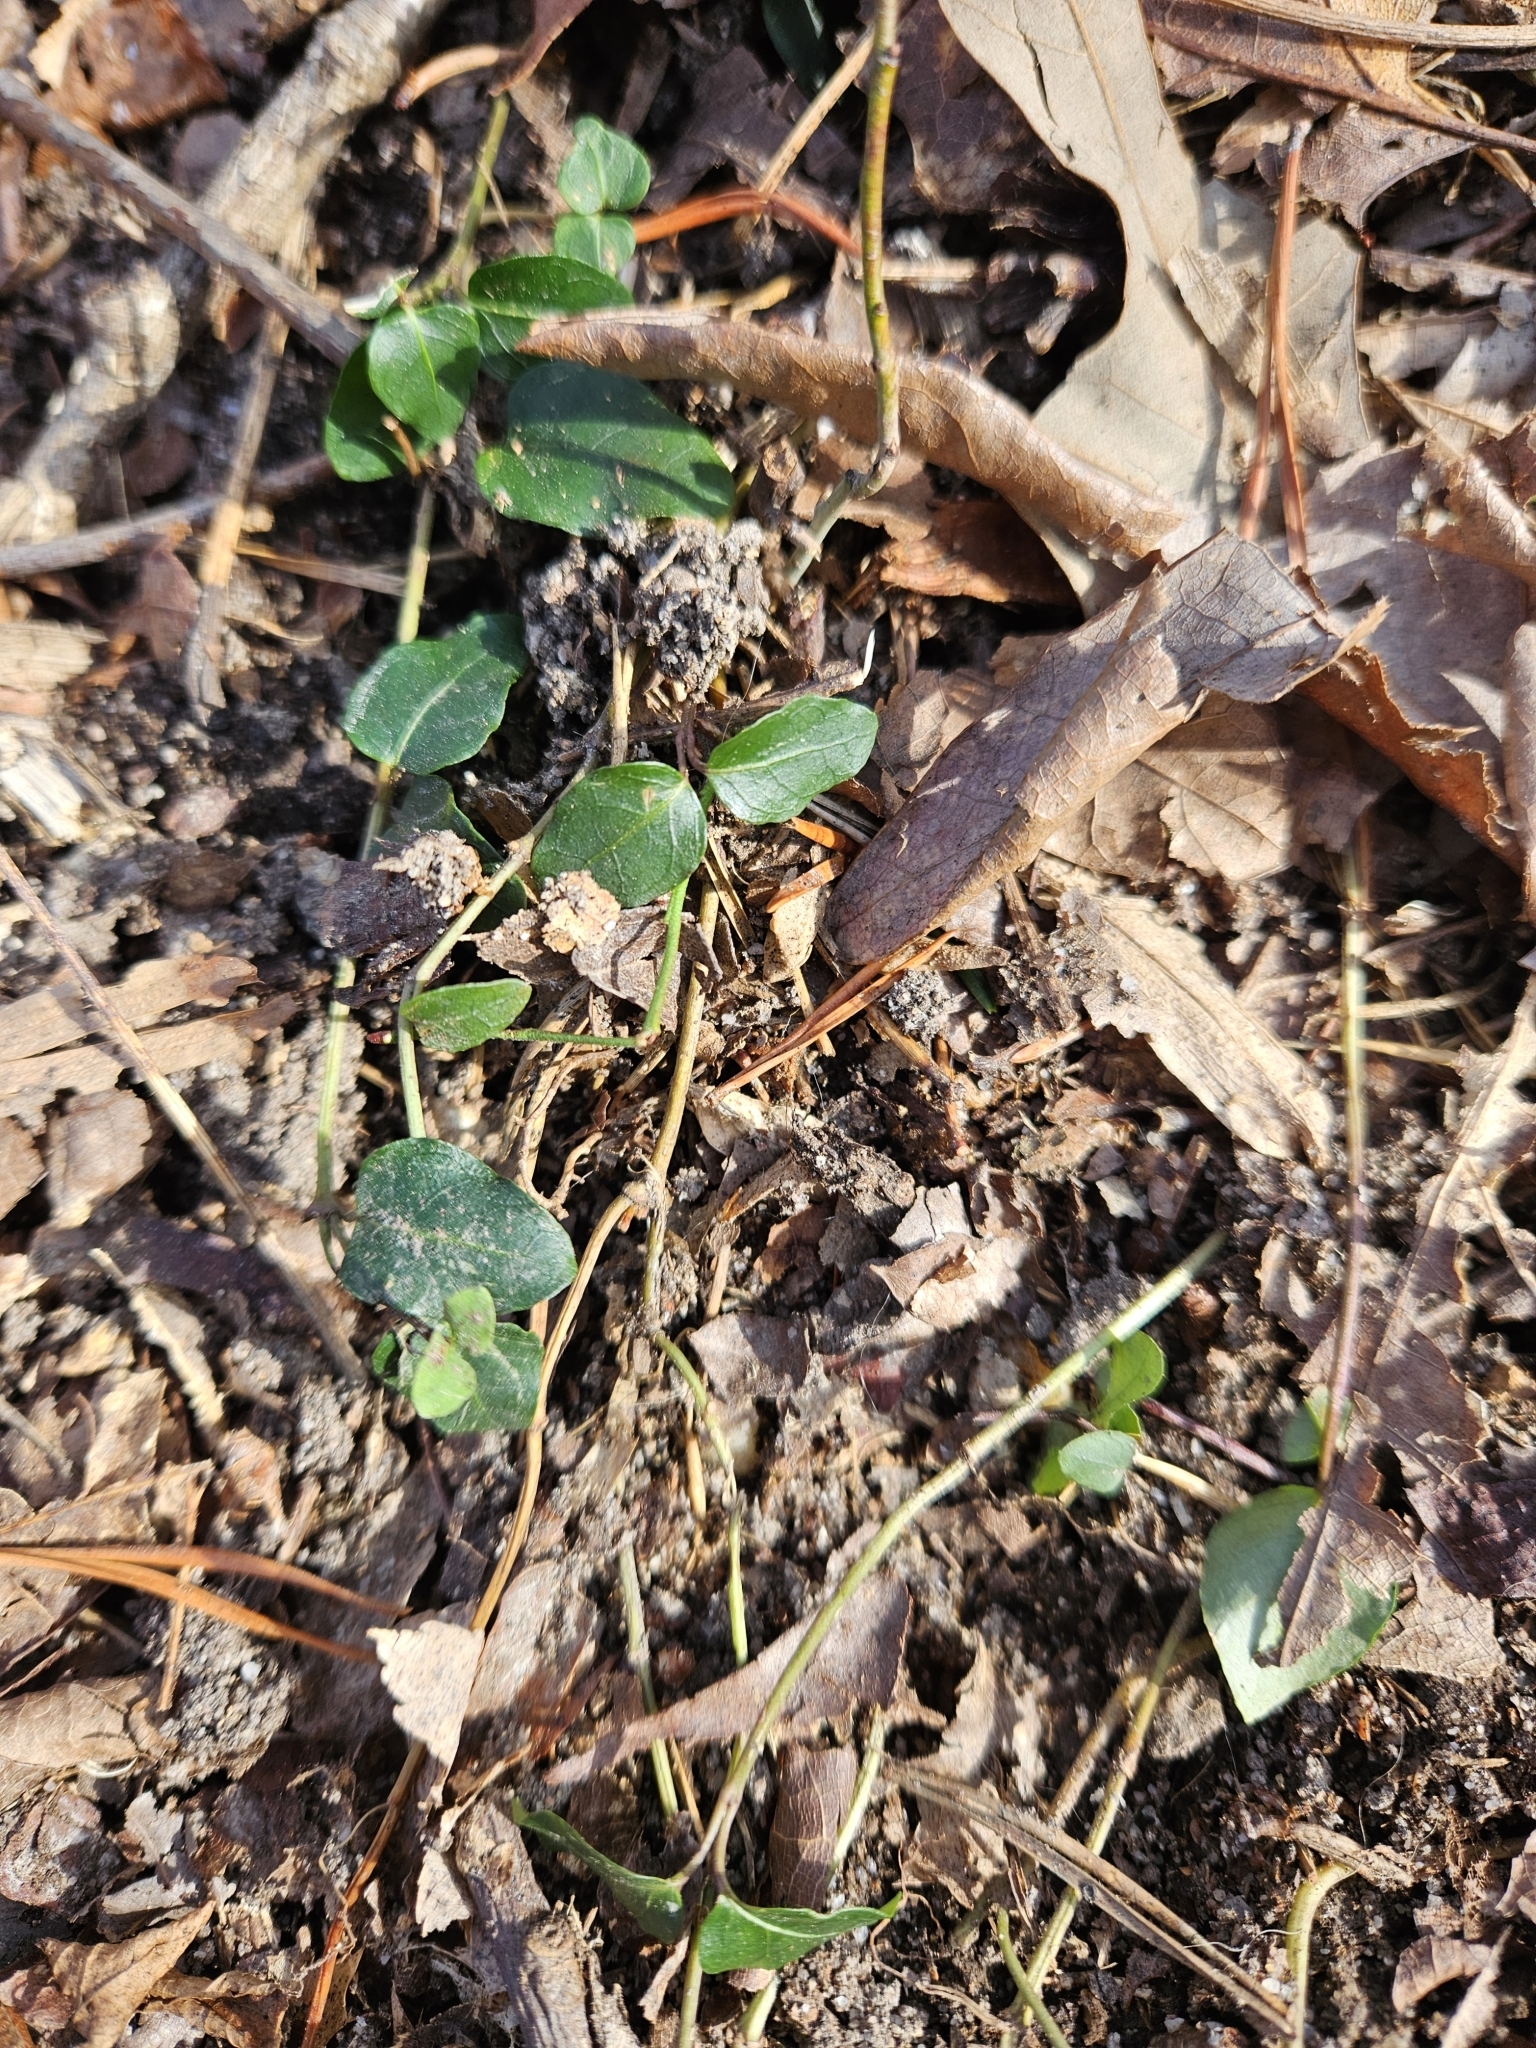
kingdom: Plantae
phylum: Tracheophyta
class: Magnoliopsida
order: Gentianales
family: Rubiaceae
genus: Mitchella
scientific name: Mitchella repens
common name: Partridge-berry
